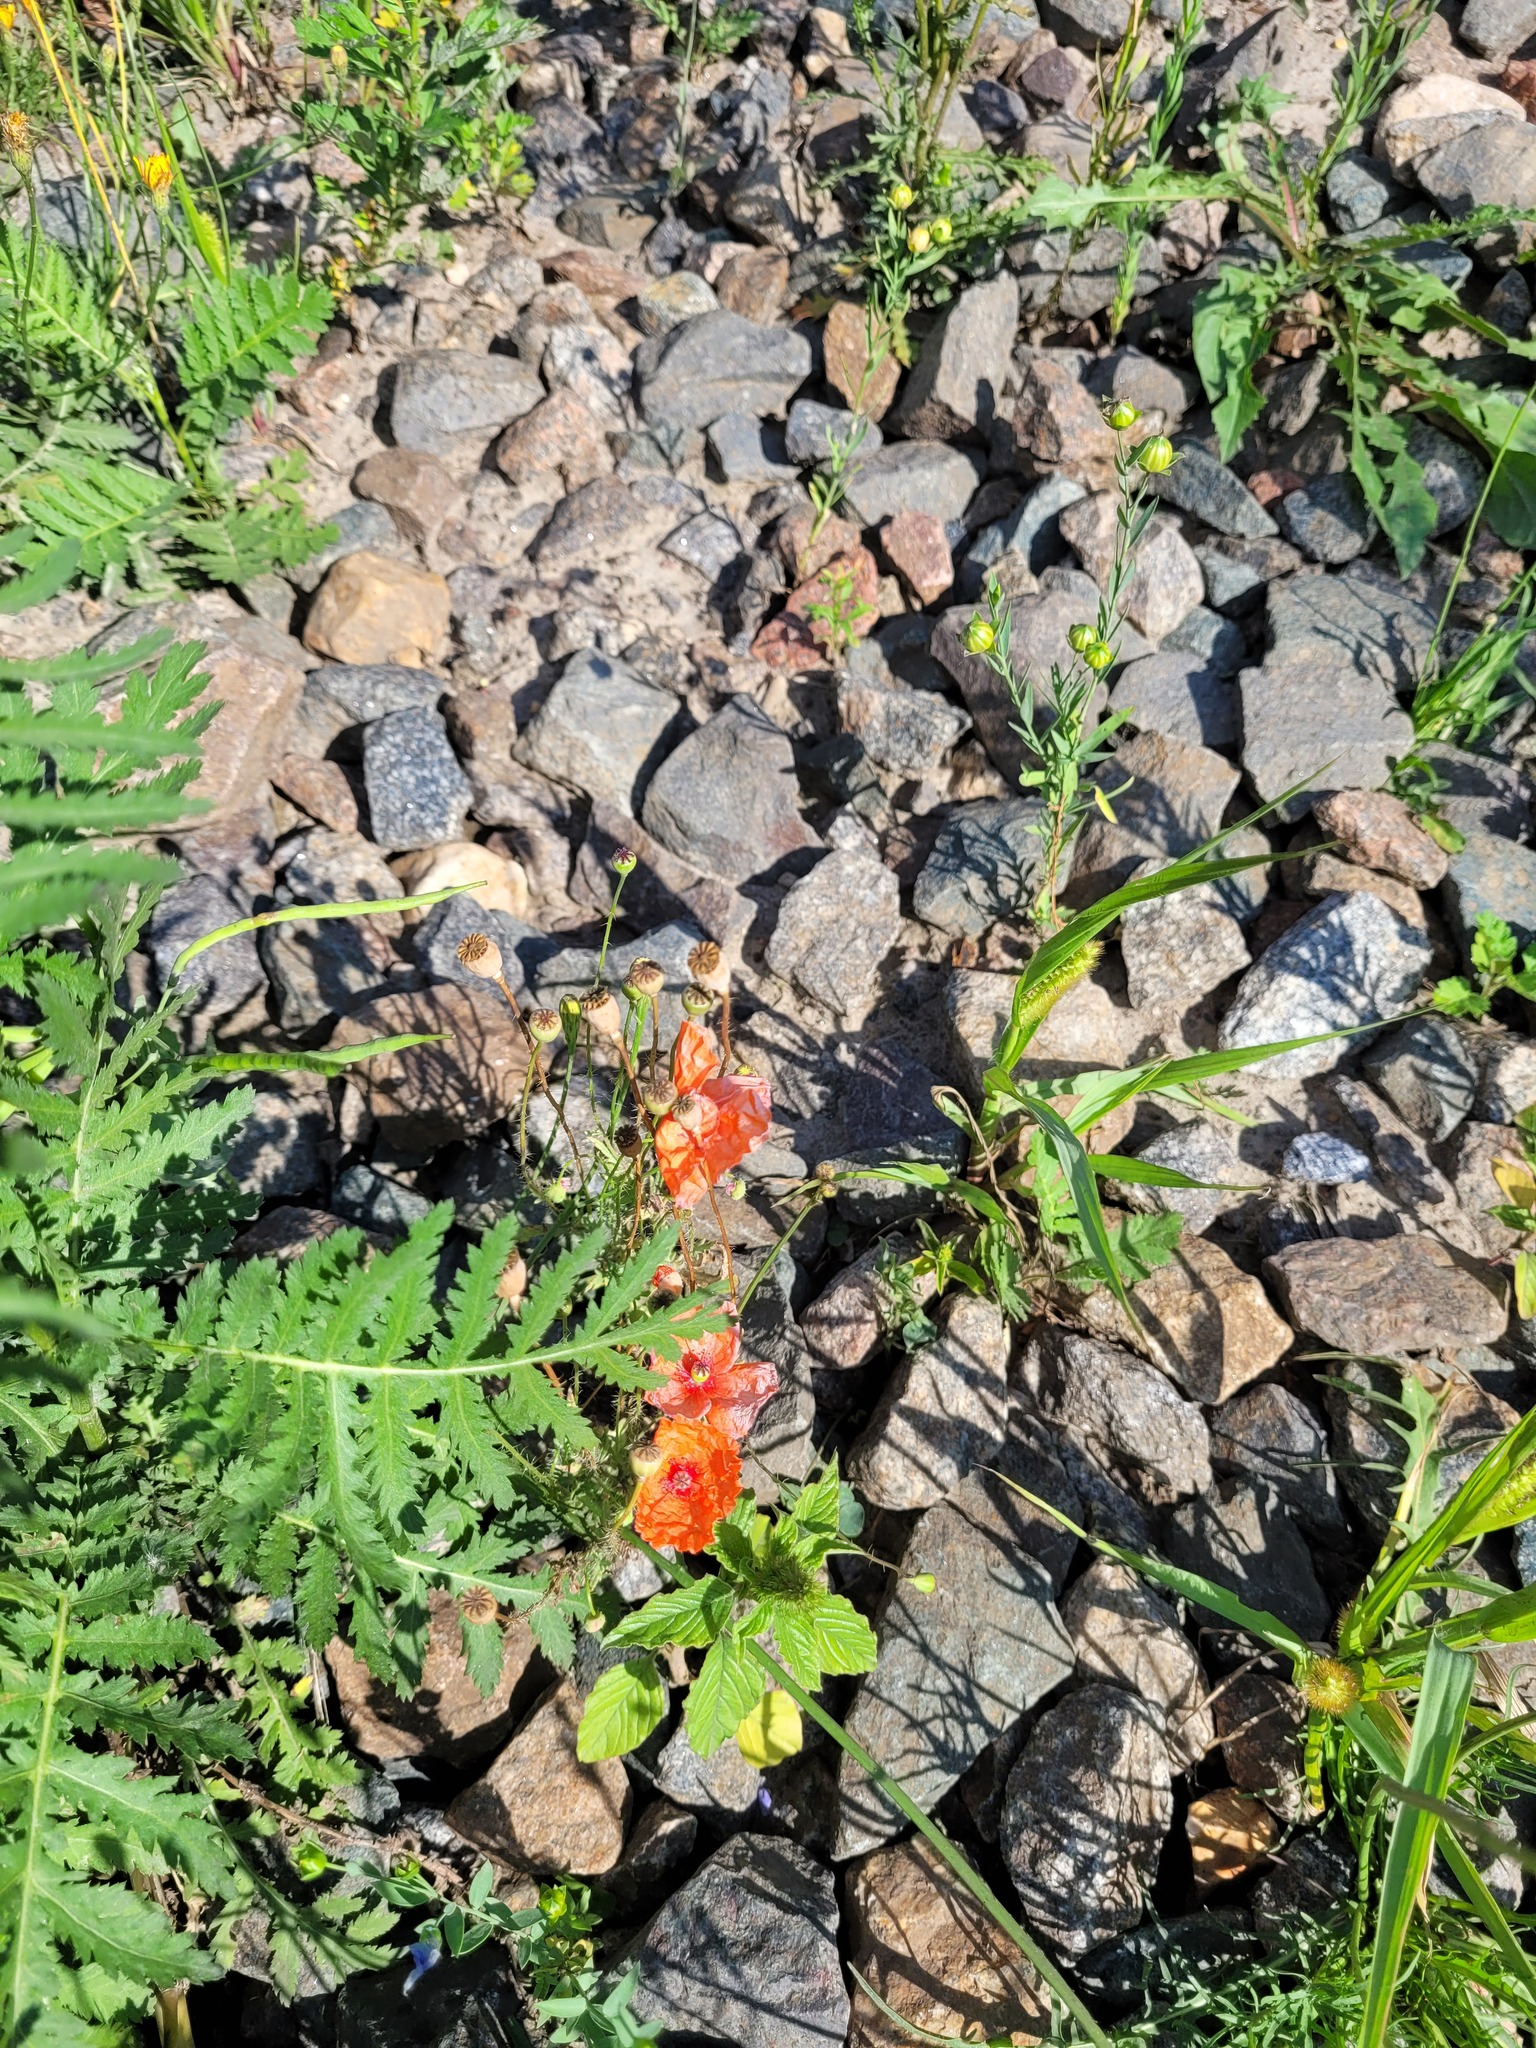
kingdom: Plantae
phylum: Tracheophyta
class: Magnoliopsida
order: Ranunculales
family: Papaveraceae
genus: Papaver
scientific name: Papaver rhoeas
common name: Corn poppy
